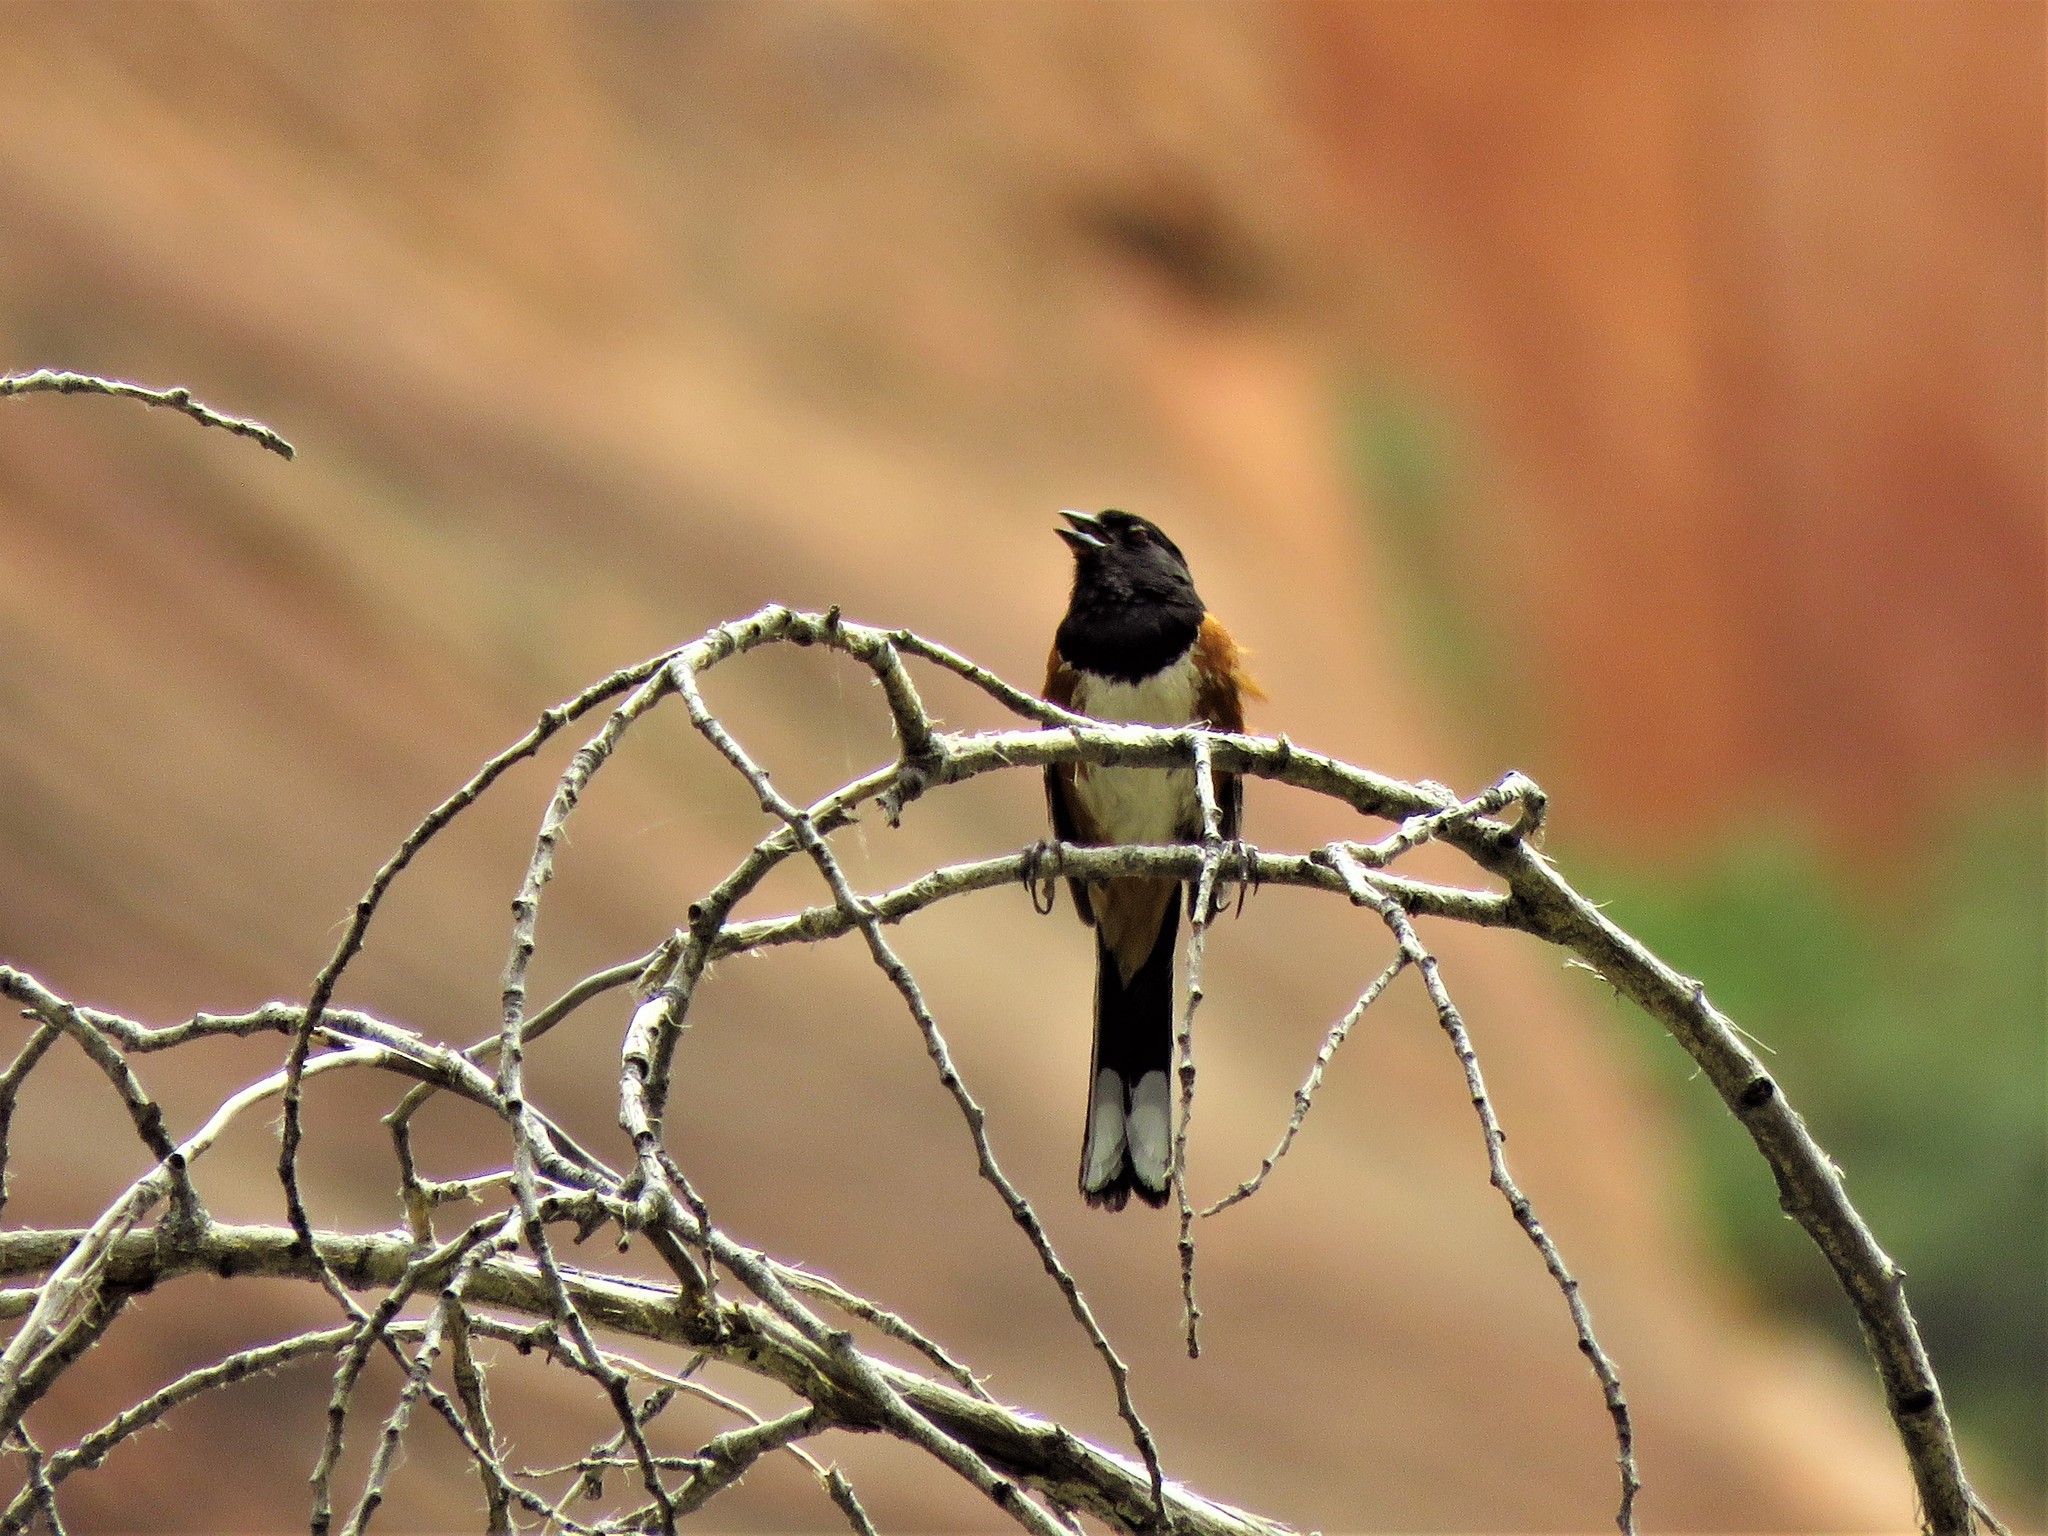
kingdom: Animalia
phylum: Chordata
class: Aves
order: Passeriformes
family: Passerellidae
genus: Pipilo
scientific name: Pipilo maculatus
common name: Spotted towhee
